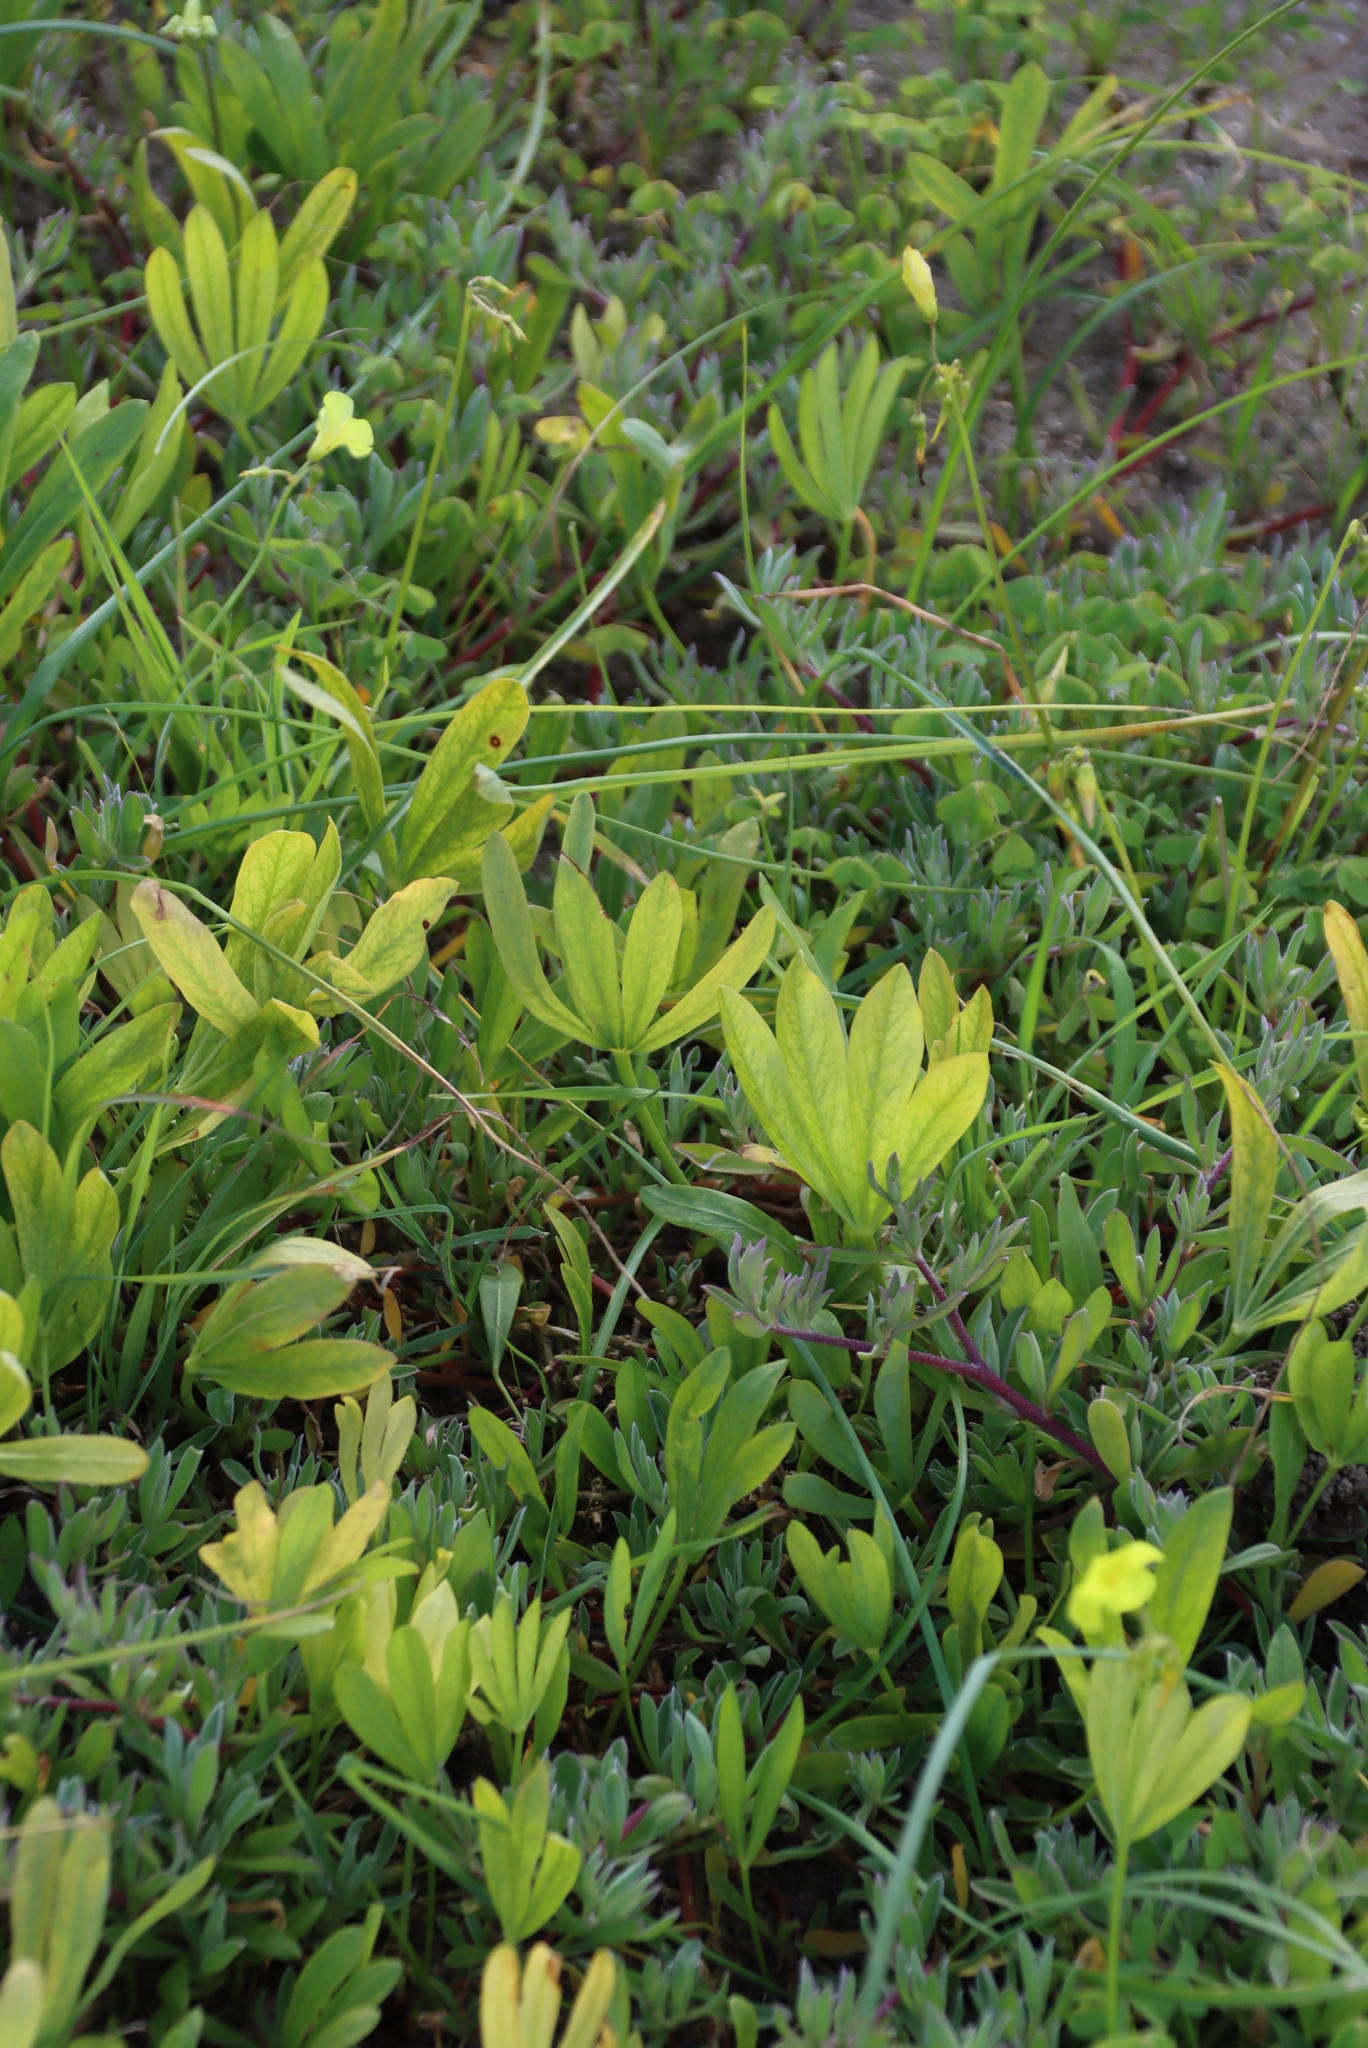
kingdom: Plantae
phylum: Tracheophyta
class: Magnoliopsida
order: Oxalidales
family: Oxalidaceae
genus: Oxalis
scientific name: Oxalis flava
